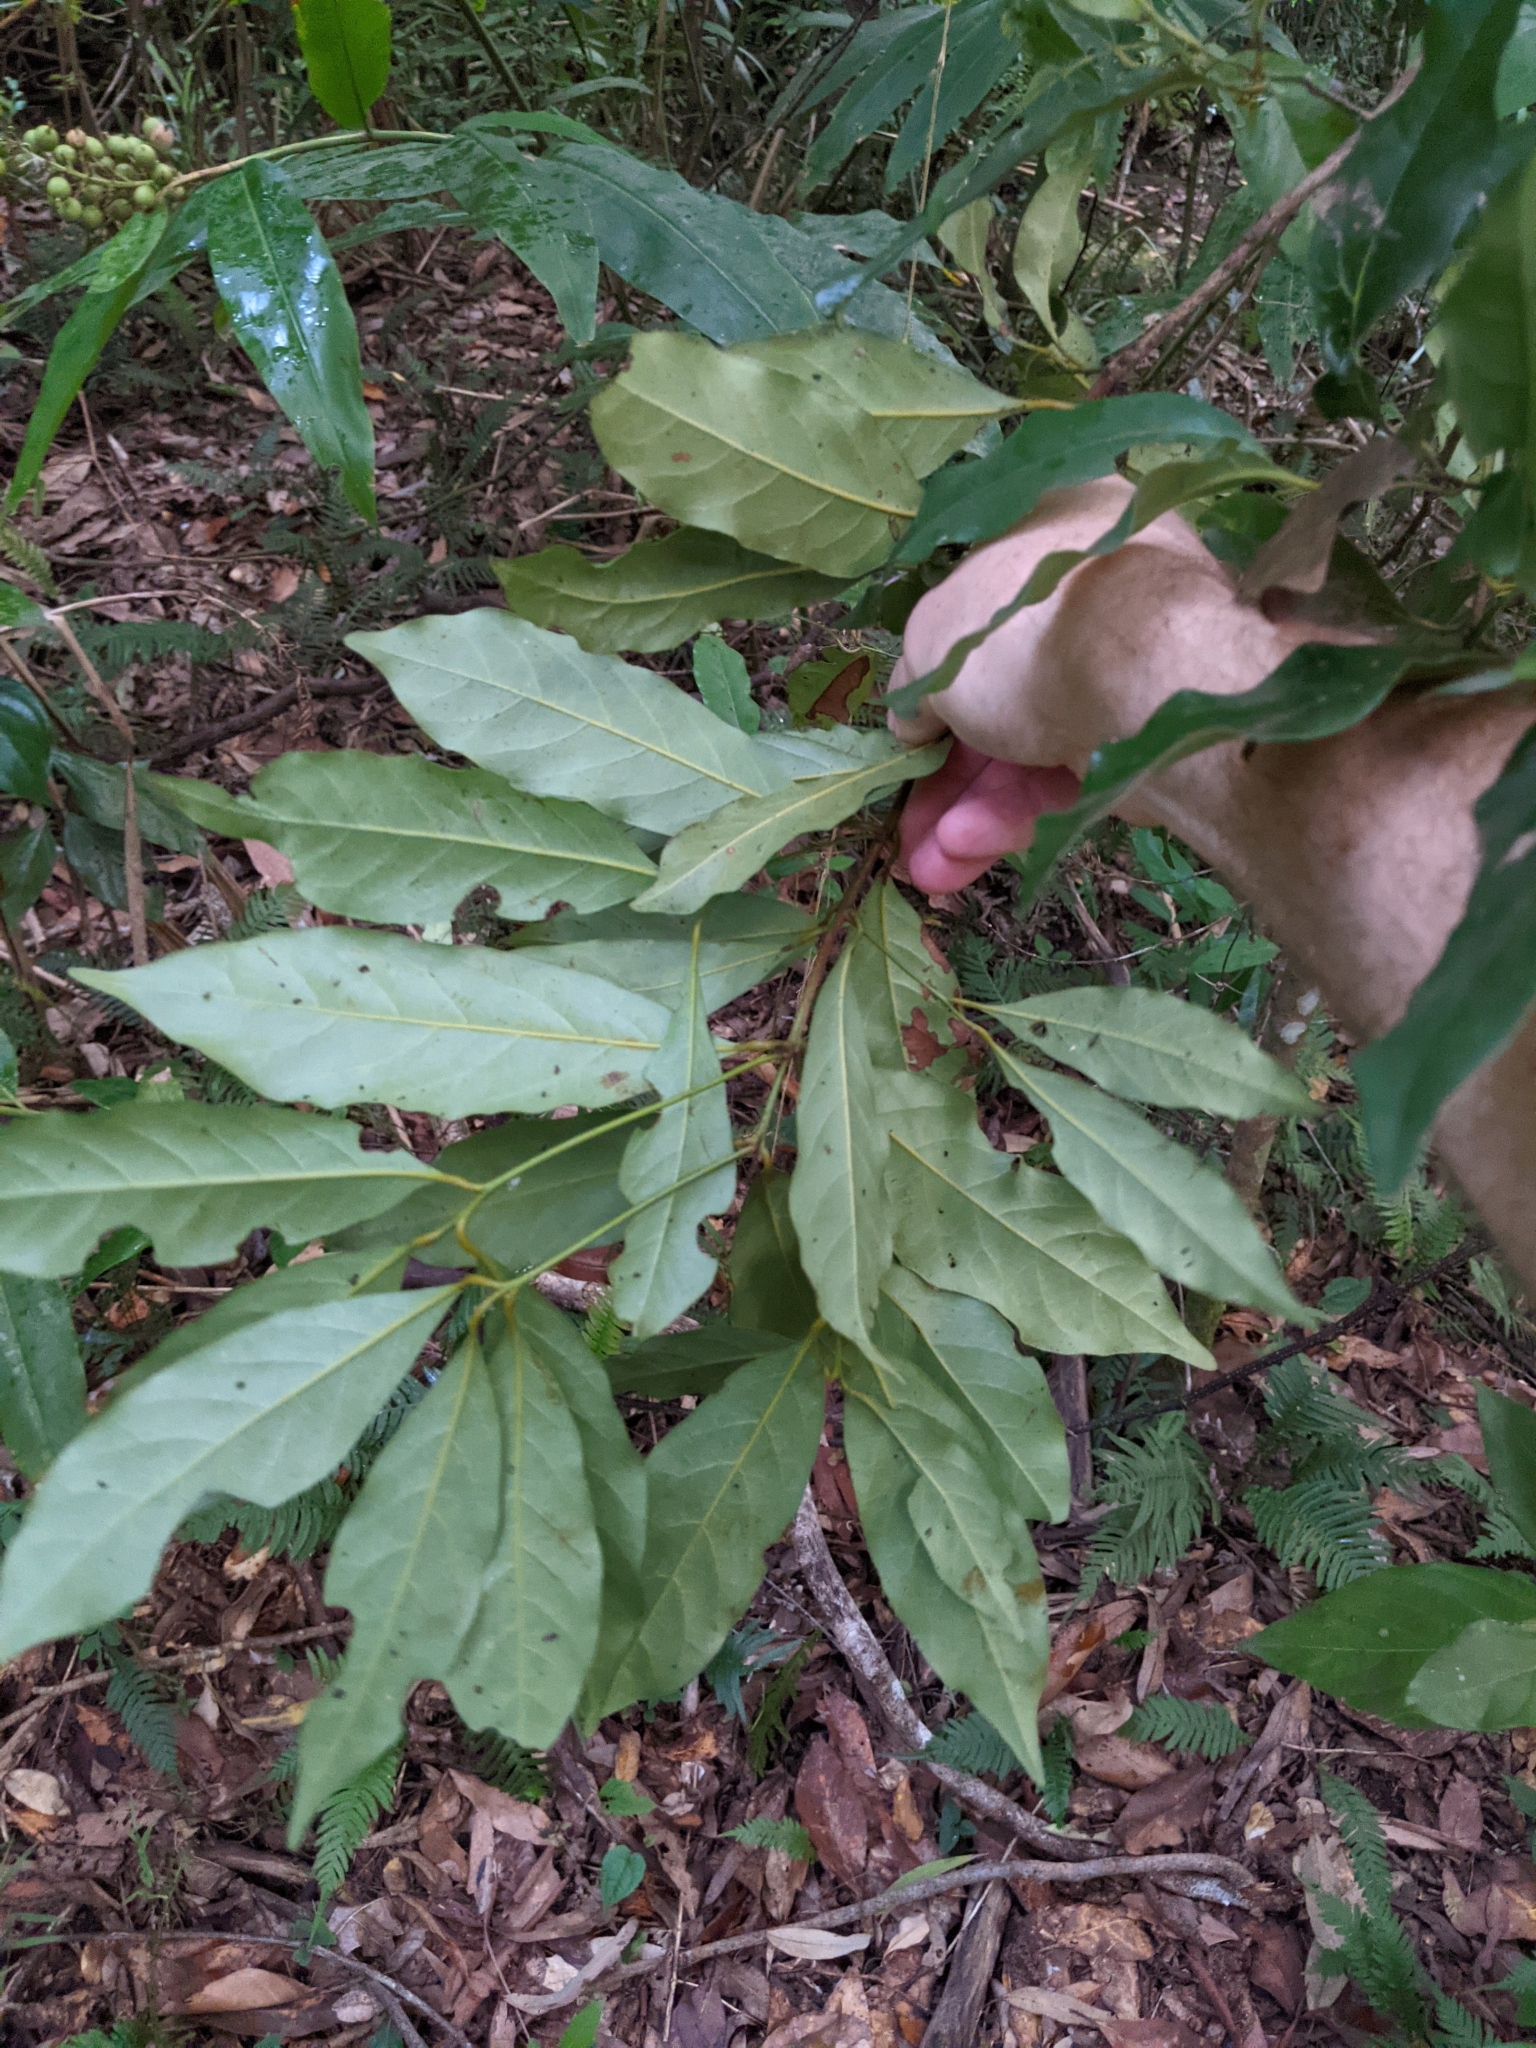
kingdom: Plantae
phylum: Tracheophyta
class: Magnoliopsida
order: Laurales
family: Lauraceae
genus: Cryptocarya
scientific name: Cryptocarya macdonaldii
